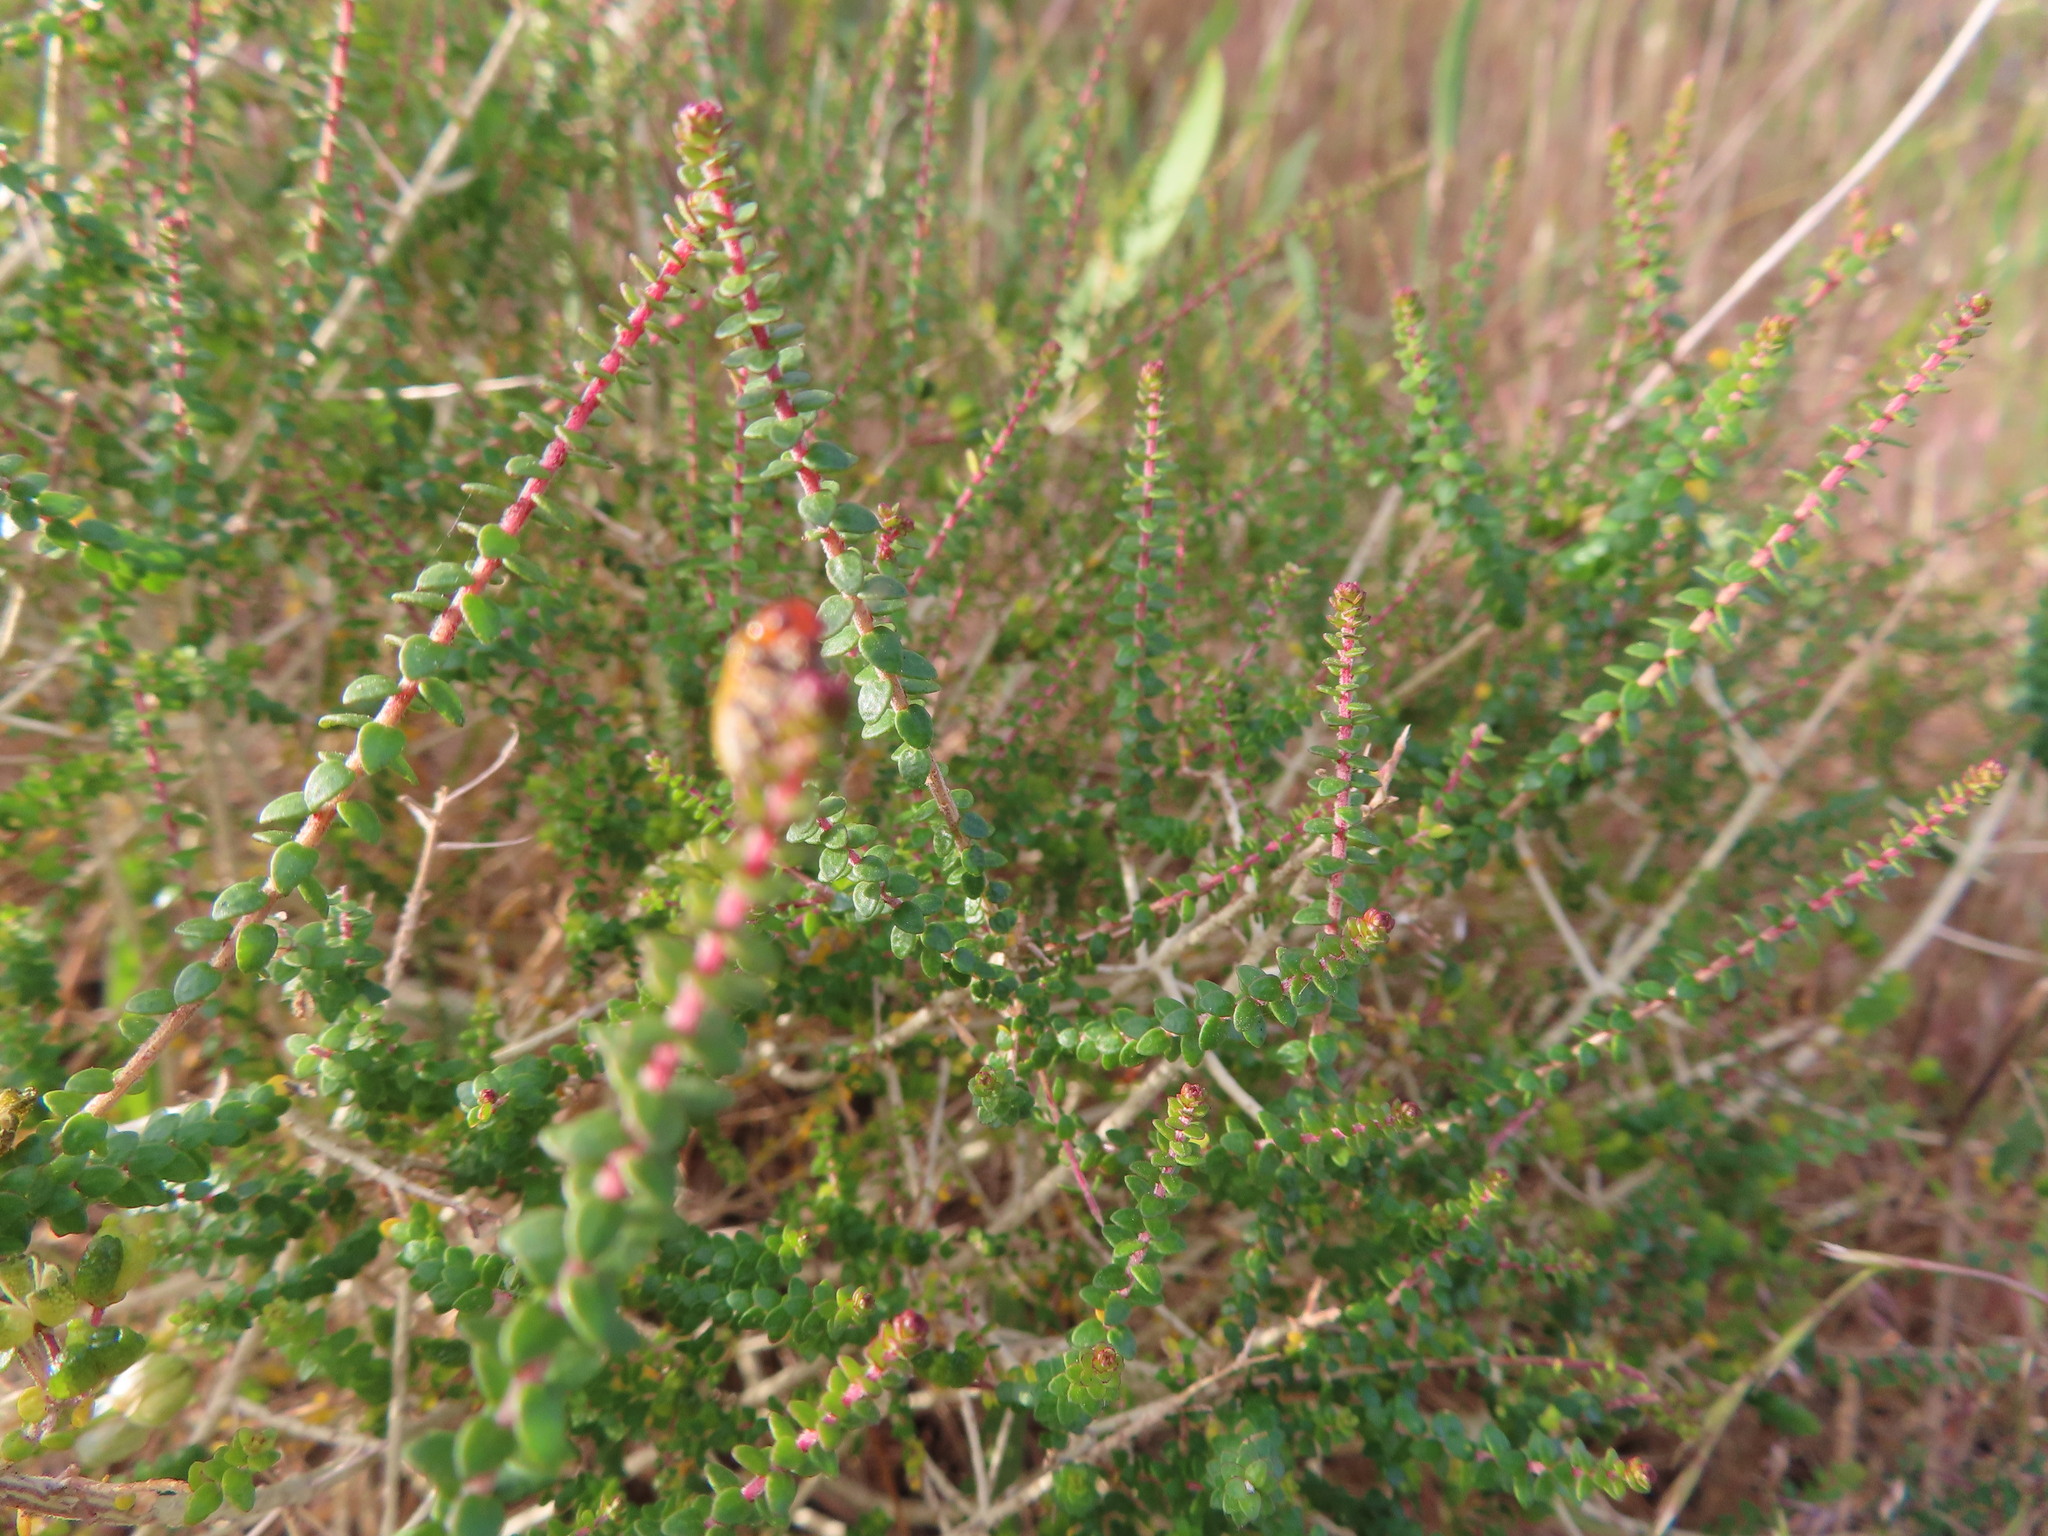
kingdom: Plantae
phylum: Tracheophyta
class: Magnoliopsida
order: Sapindales
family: Rutaceae
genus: Agathosma
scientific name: Agathosma orbicularis
